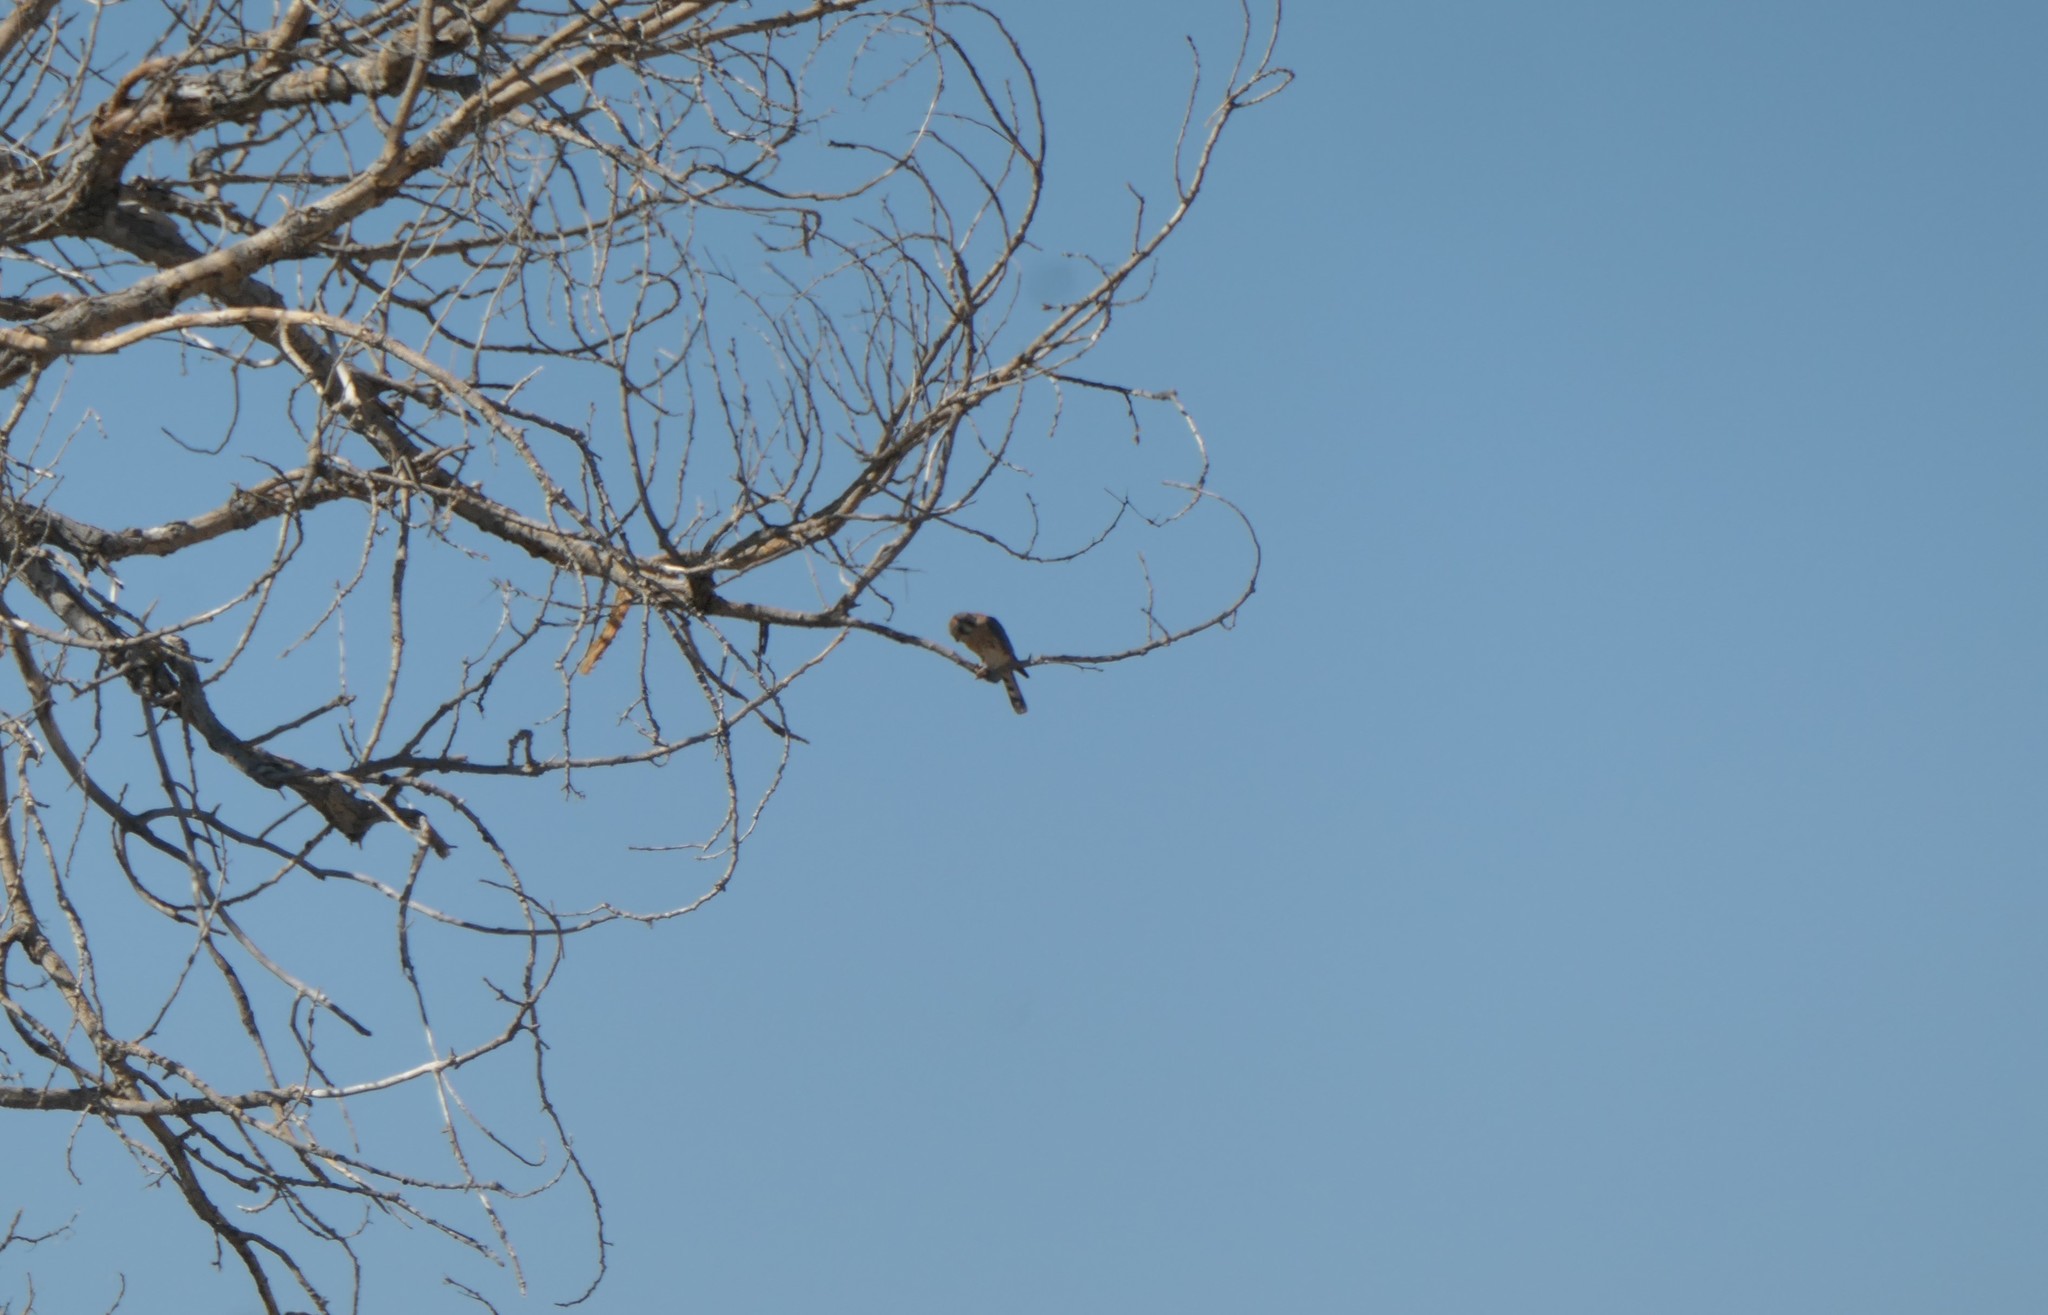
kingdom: Animalia
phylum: Chordata
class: Aves
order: Falconiformes
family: Falconidae
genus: Falco
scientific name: Falco sparverius
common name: American kestrel
